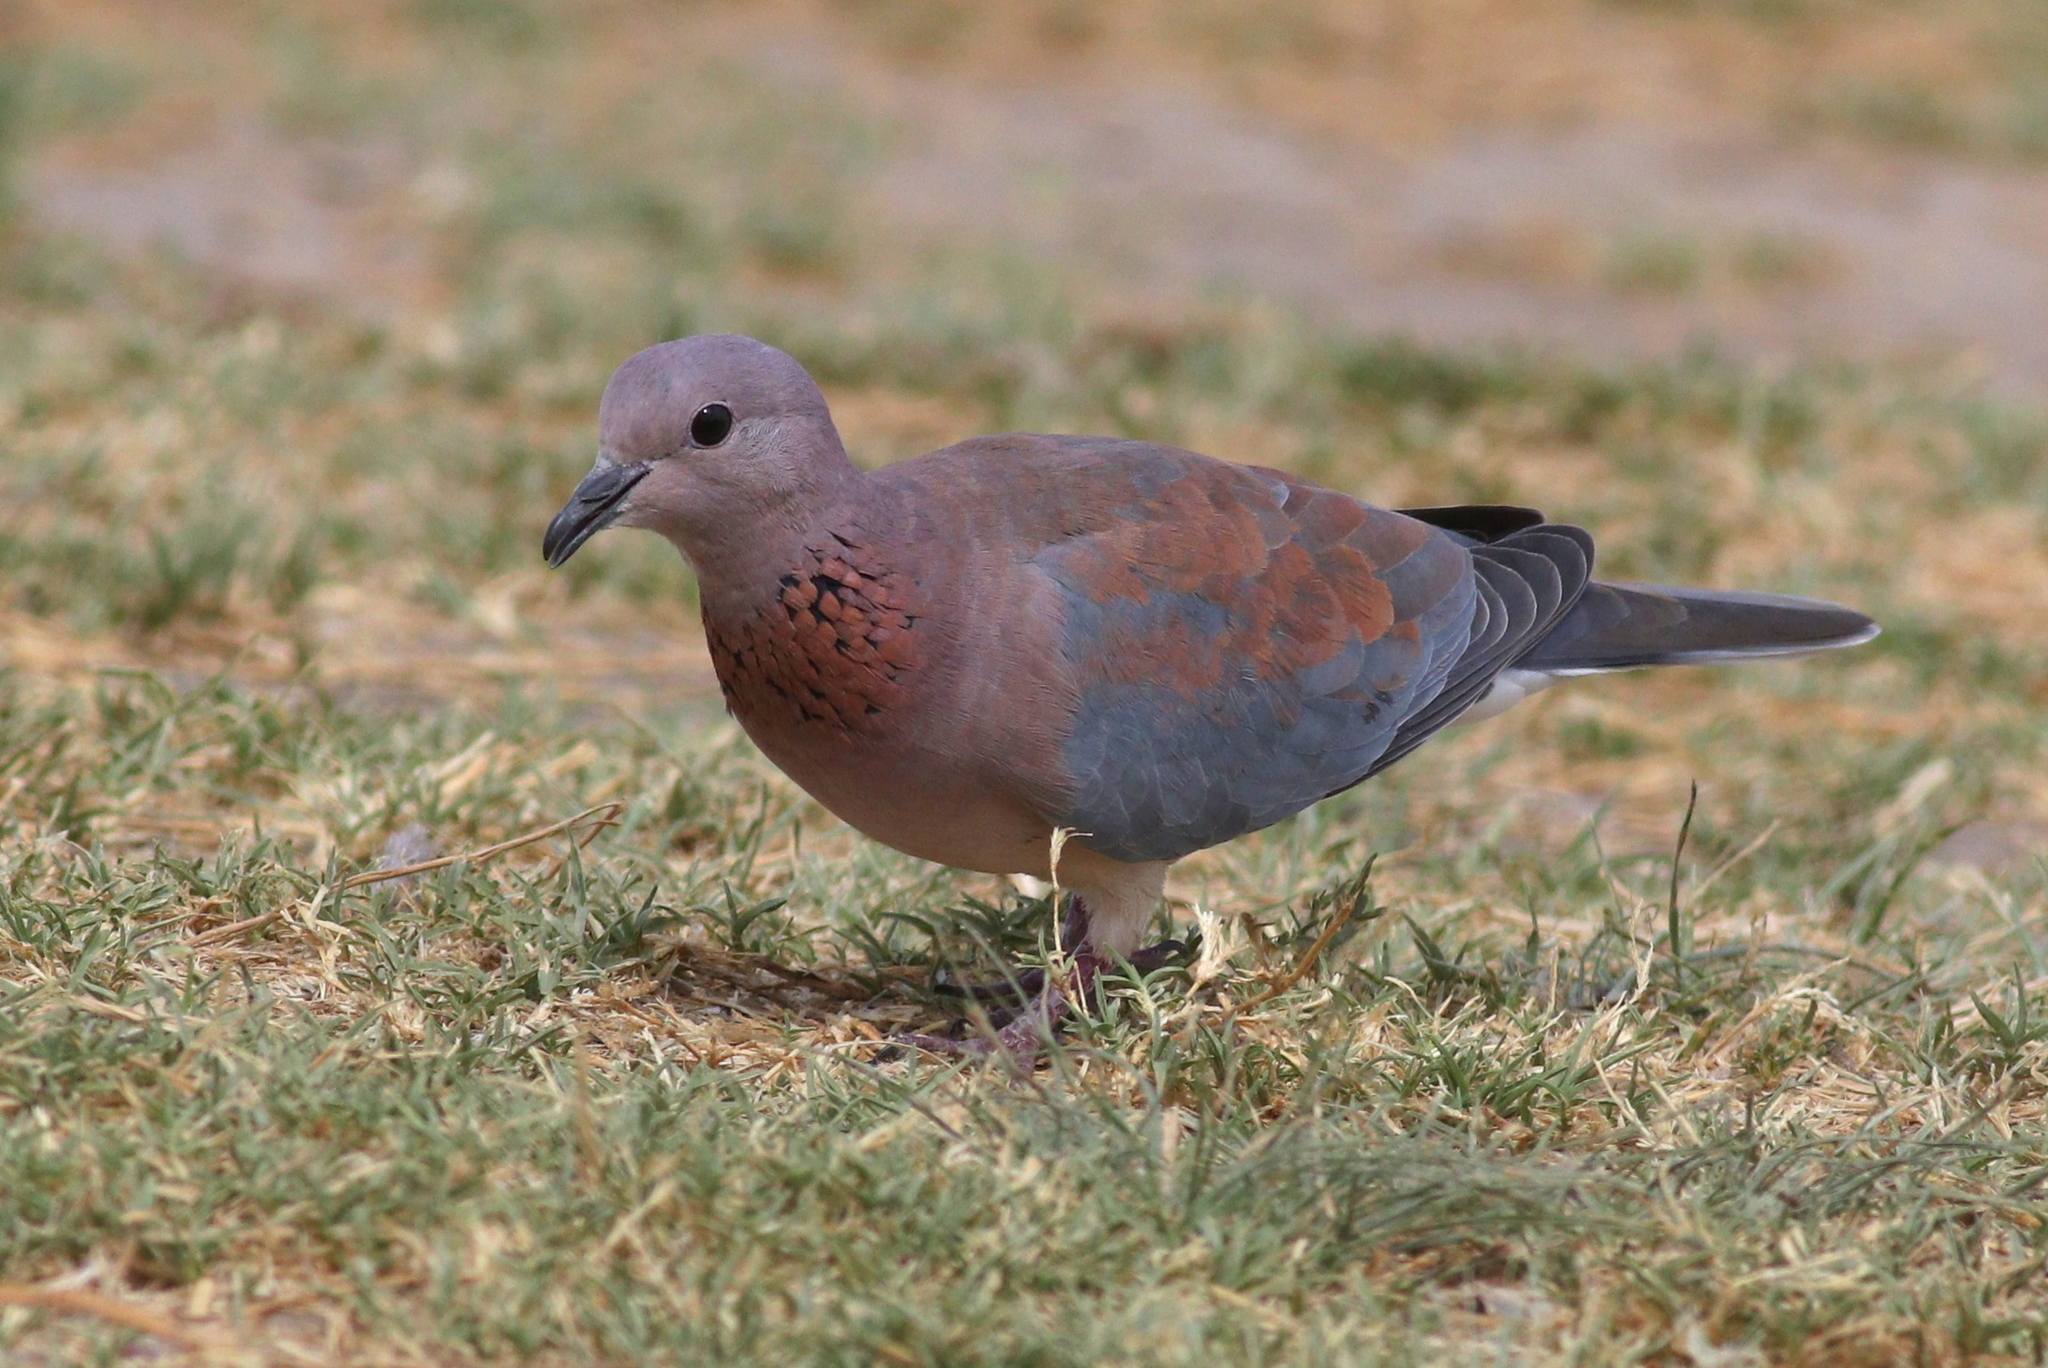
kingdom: Animalia
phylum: Chordata
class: Aves
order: Columbiformes
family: Columbidae
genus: Spilopelia
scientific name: Spilopelia senegalensis
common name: Laughing dove
